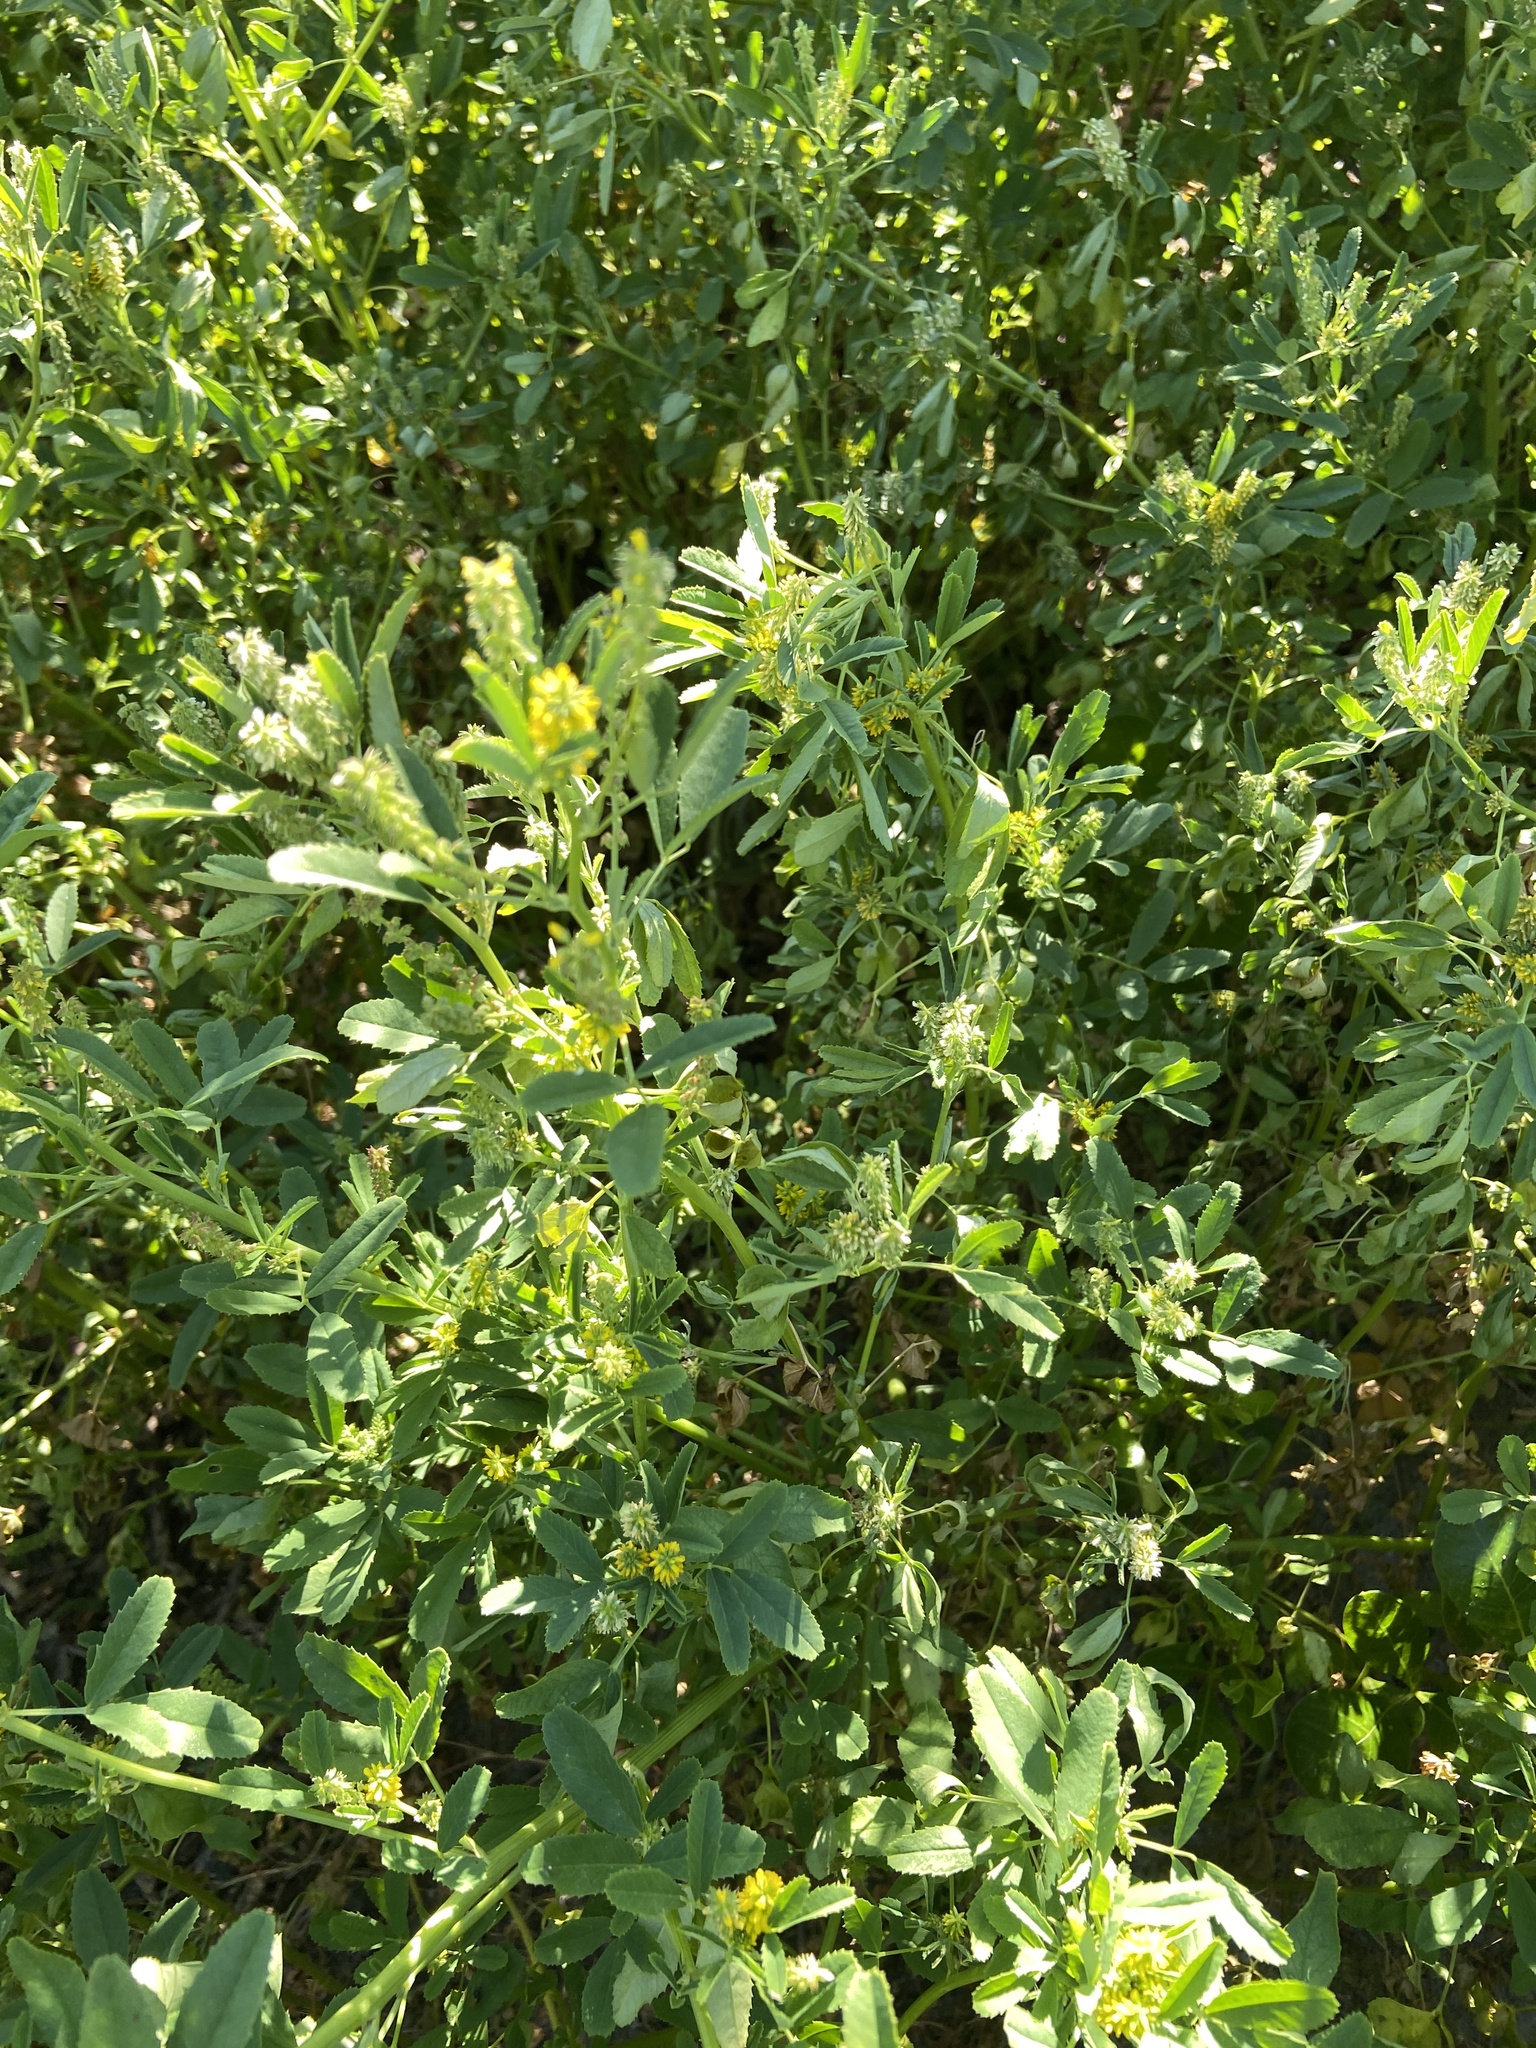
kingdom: Plantae
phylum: Tracheophyta
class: Magnoliopsida
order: Fabales
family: Fabaceae
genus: Melilotus
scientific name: Melilotus indicus
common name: Small melilot
